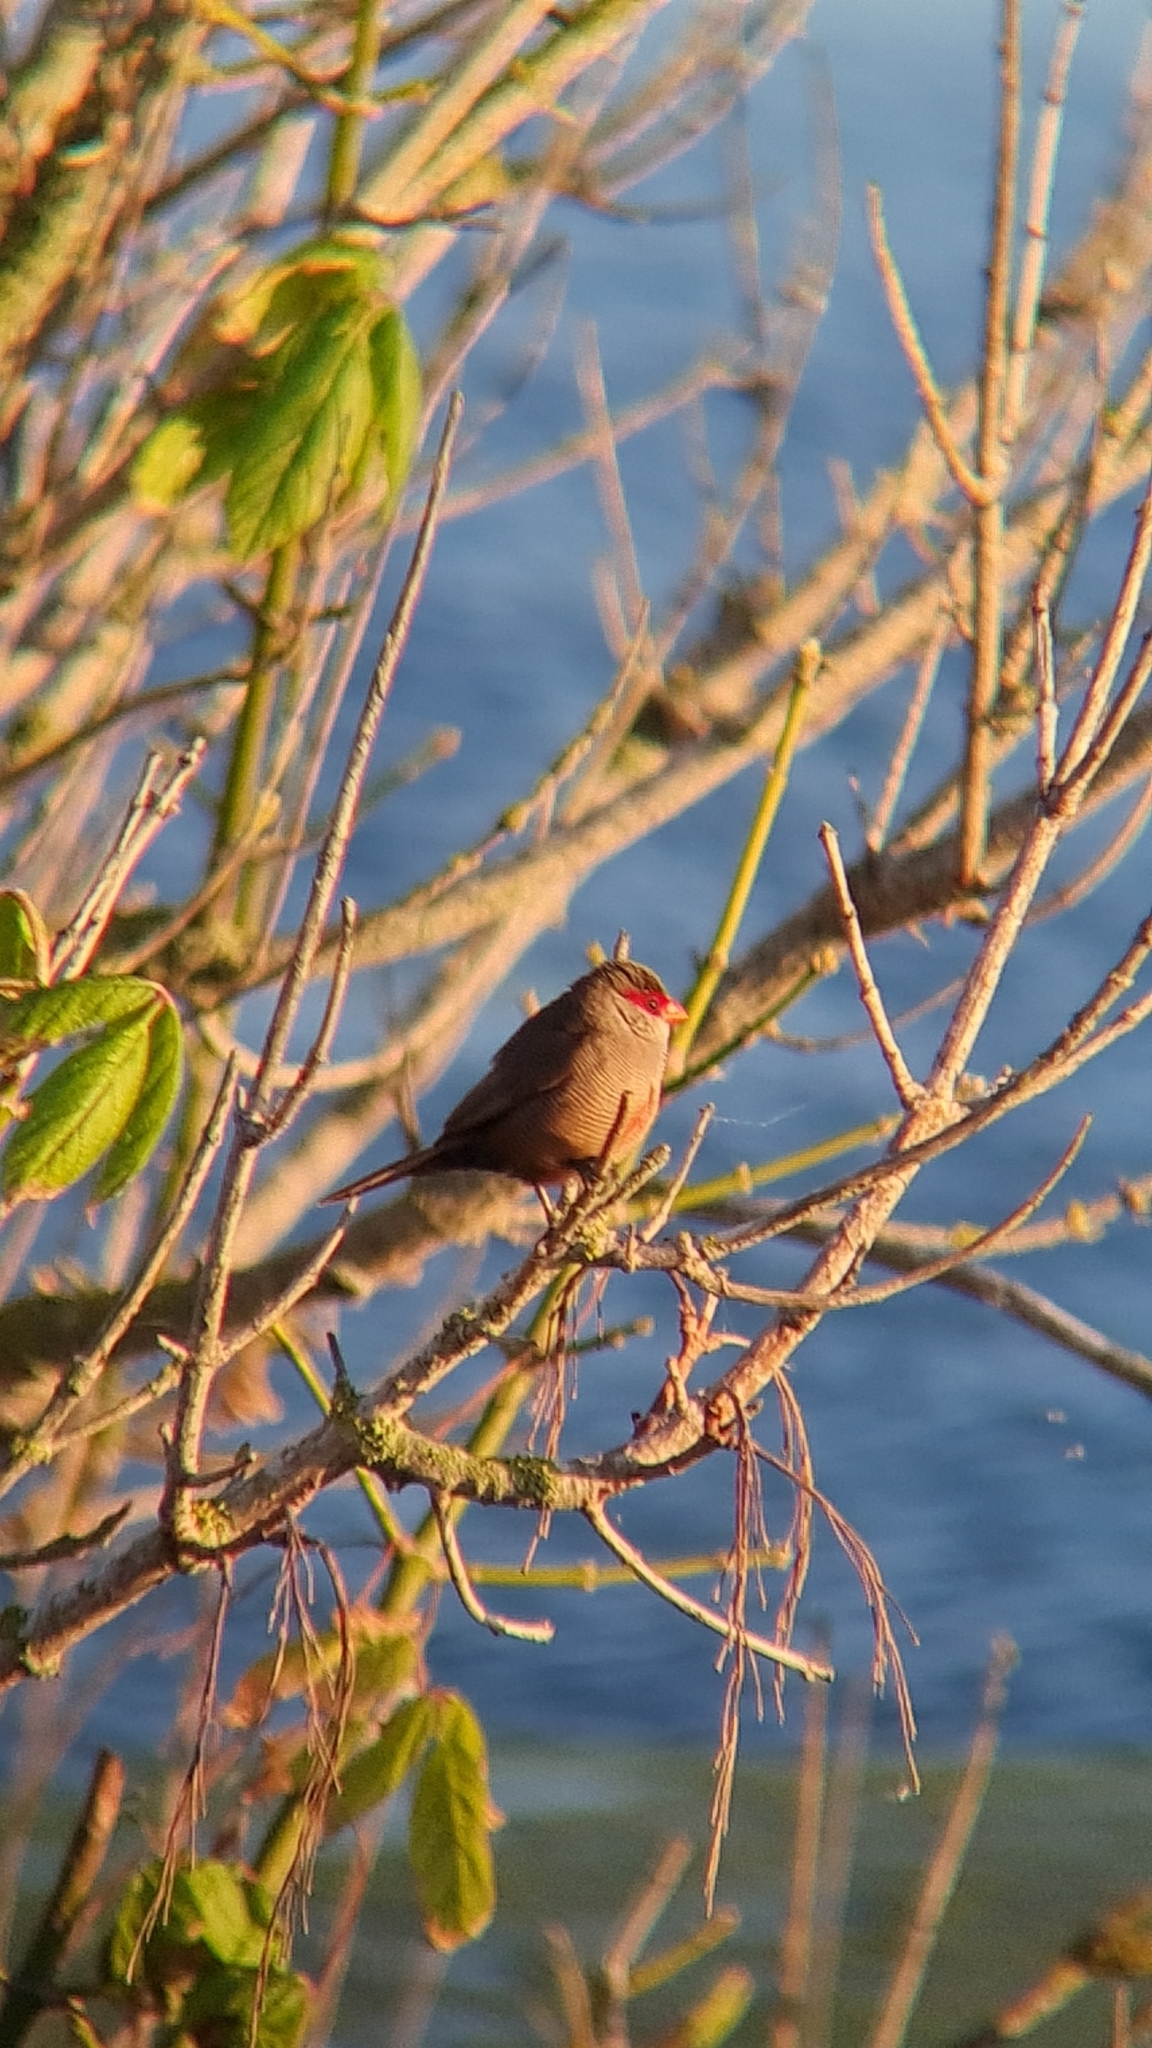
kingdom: Animalia
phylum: Chordata
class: Aves
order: Passeriformes
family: Estrildidae
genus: Estrilda
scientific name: Estrilda astrild
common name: Common waxbill
